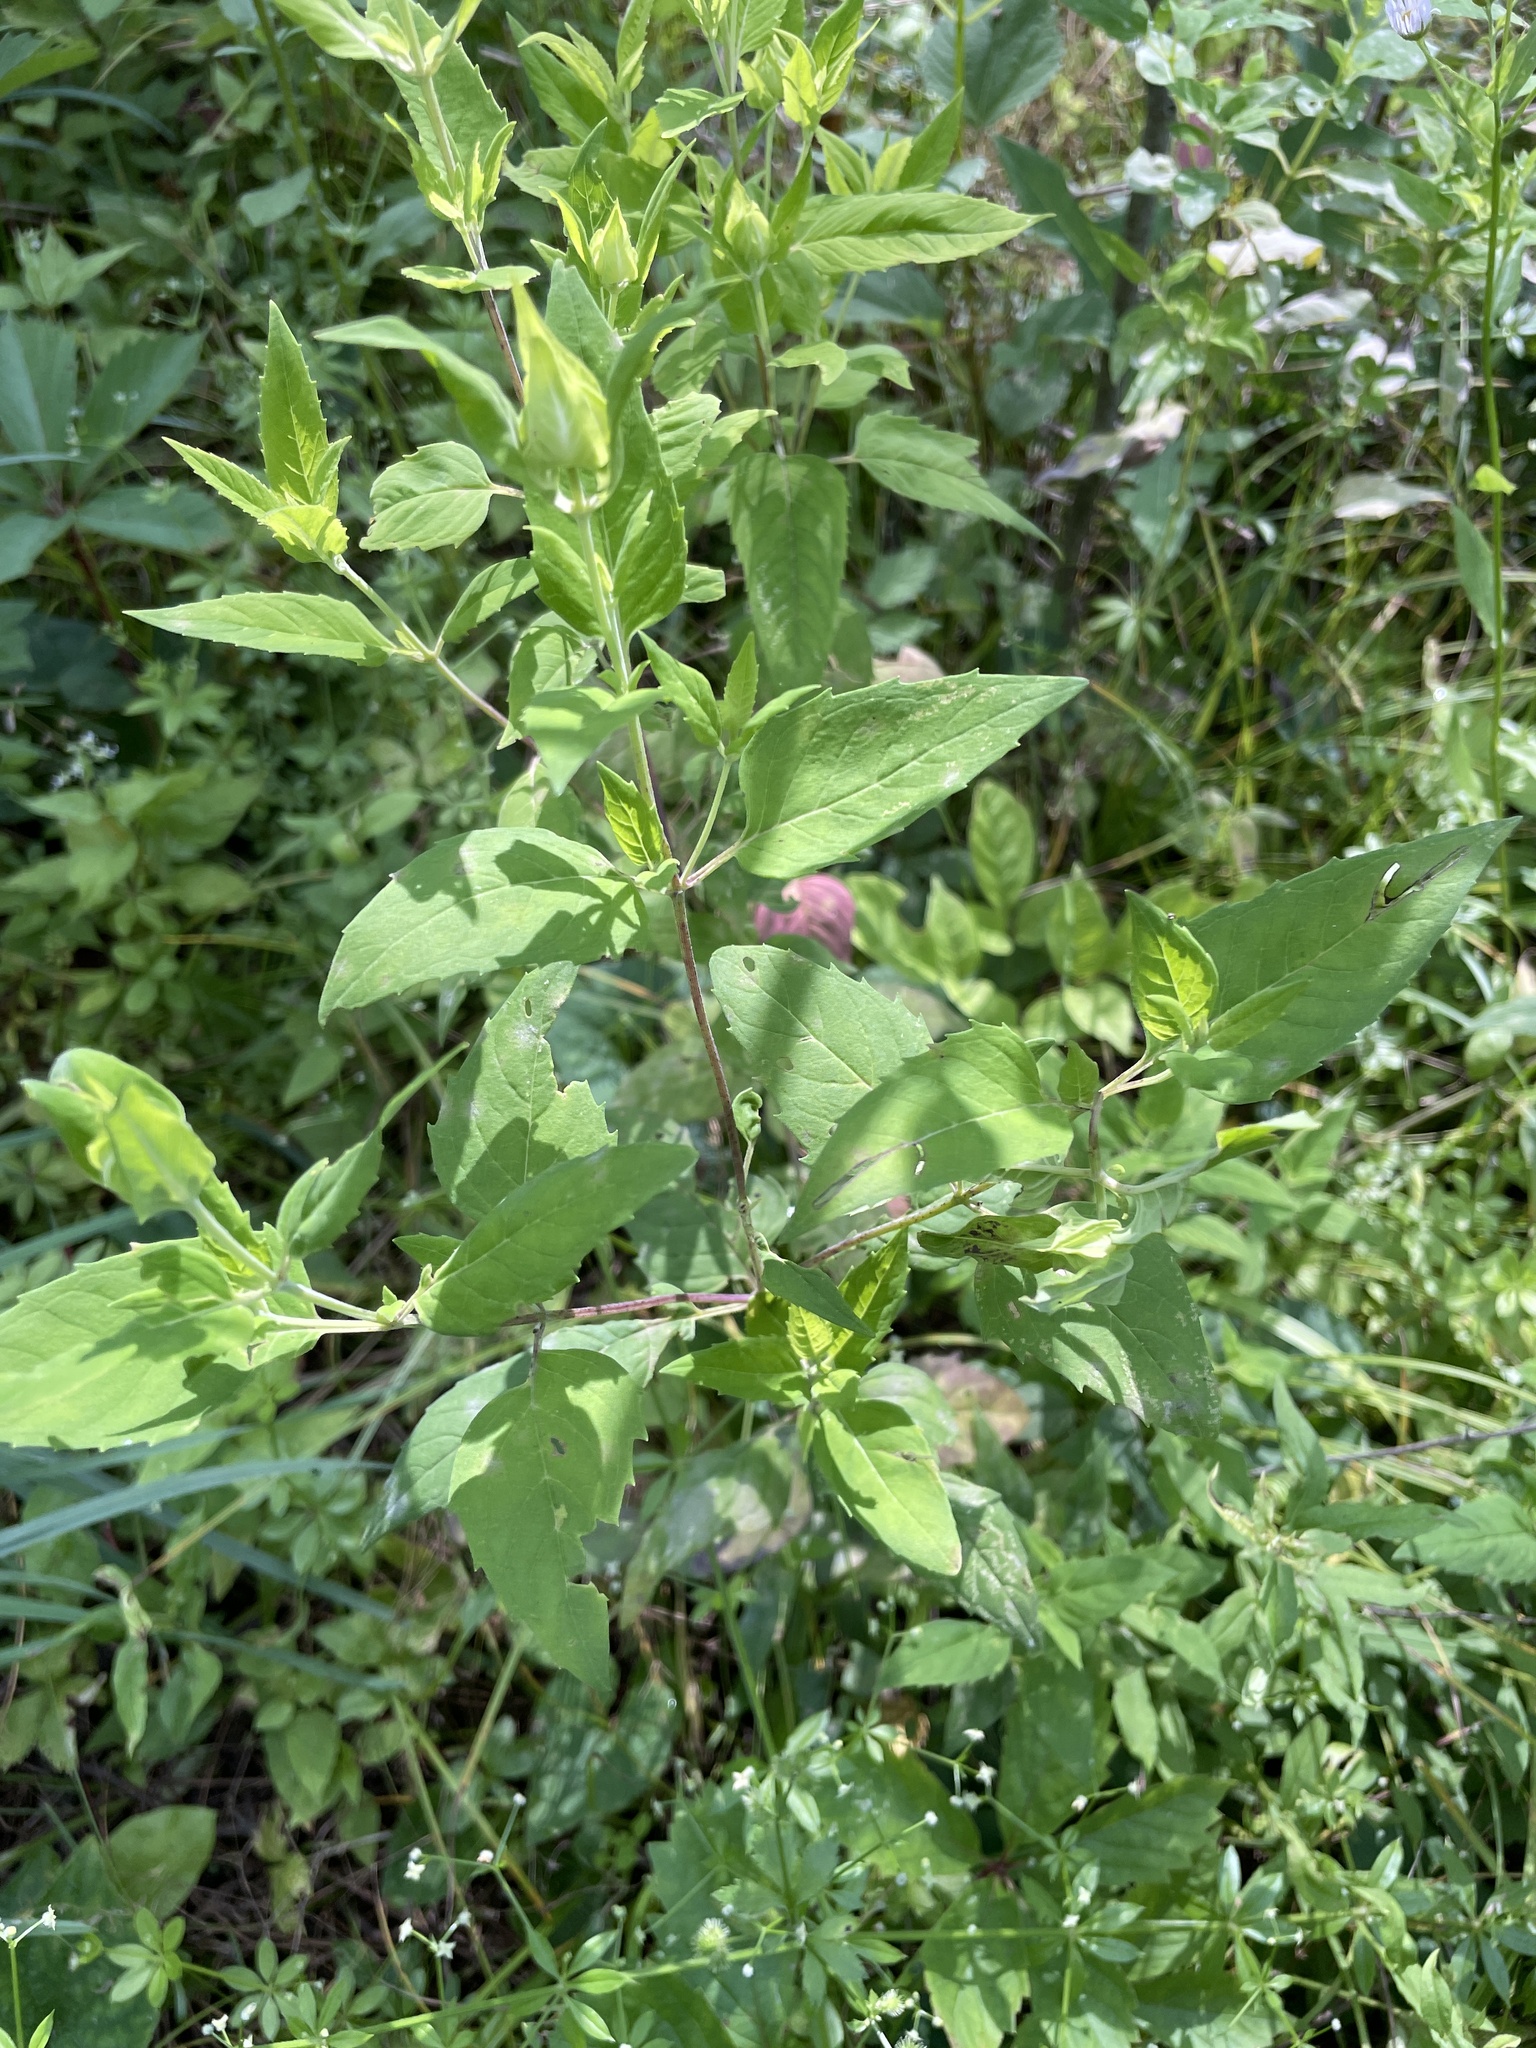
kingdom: Plantae
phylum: Tracheophyta
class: Magnoliopsida
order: Lamiales
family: Lamiaceae
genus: Monarda
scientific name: Monarda fistulosa
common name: Purple beebalm
